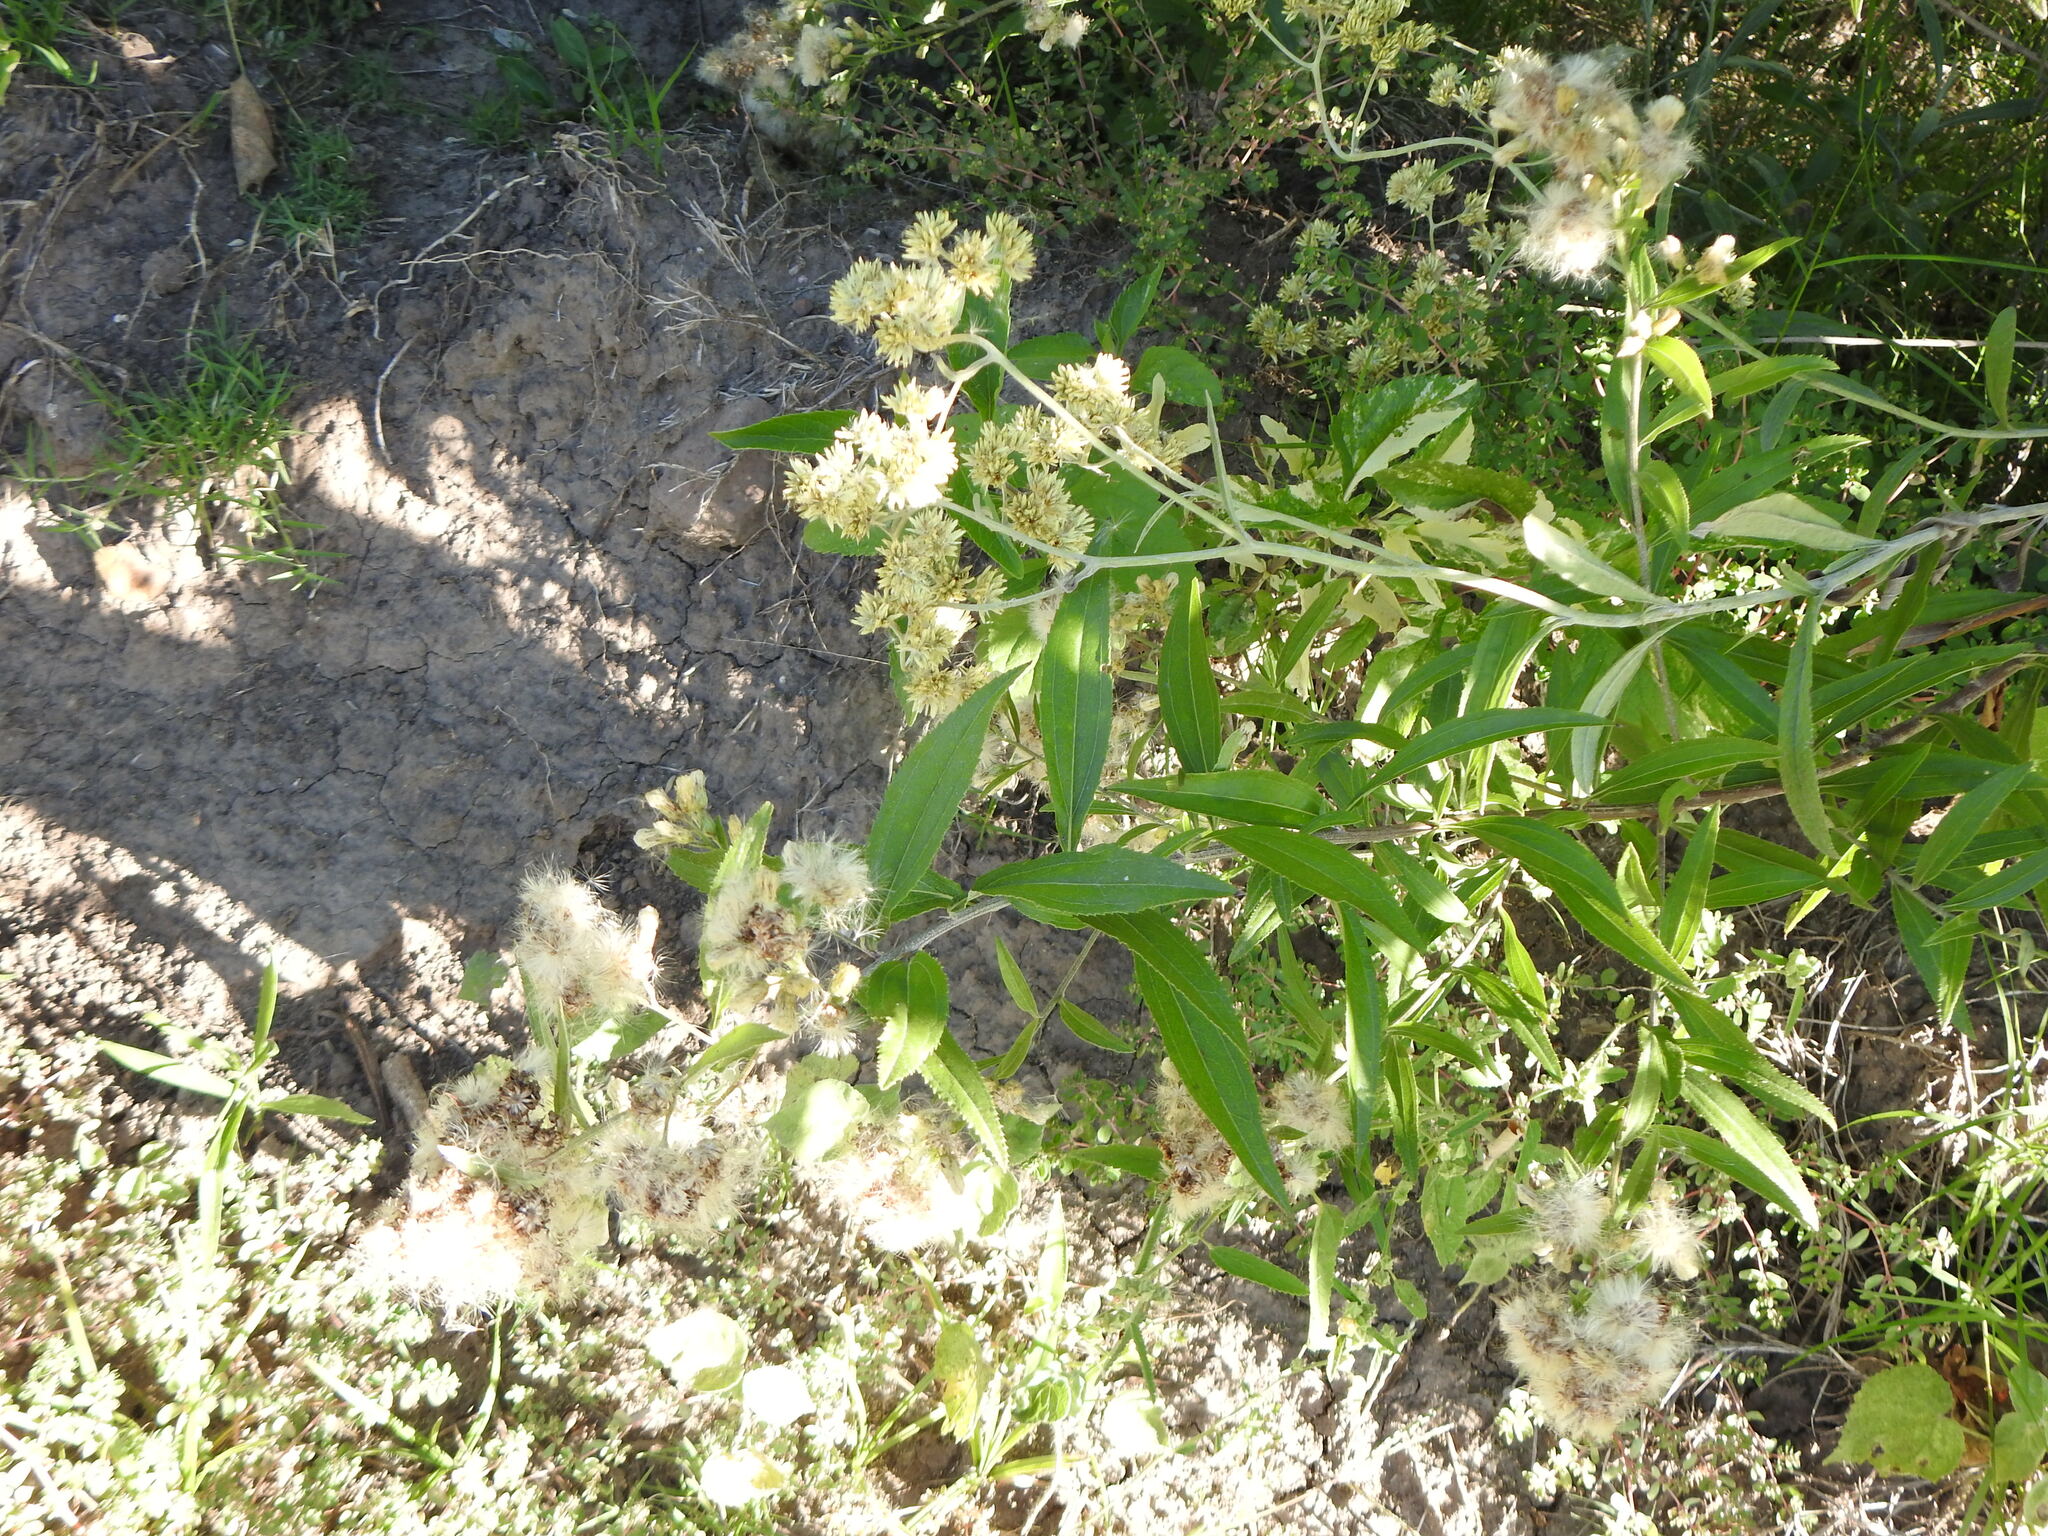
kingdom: Plantae
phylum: Tracheophyta
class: Magnoliopsida
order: Asterales
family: Asteraceae
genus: Baccharis
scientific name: Baccharis punctulata
